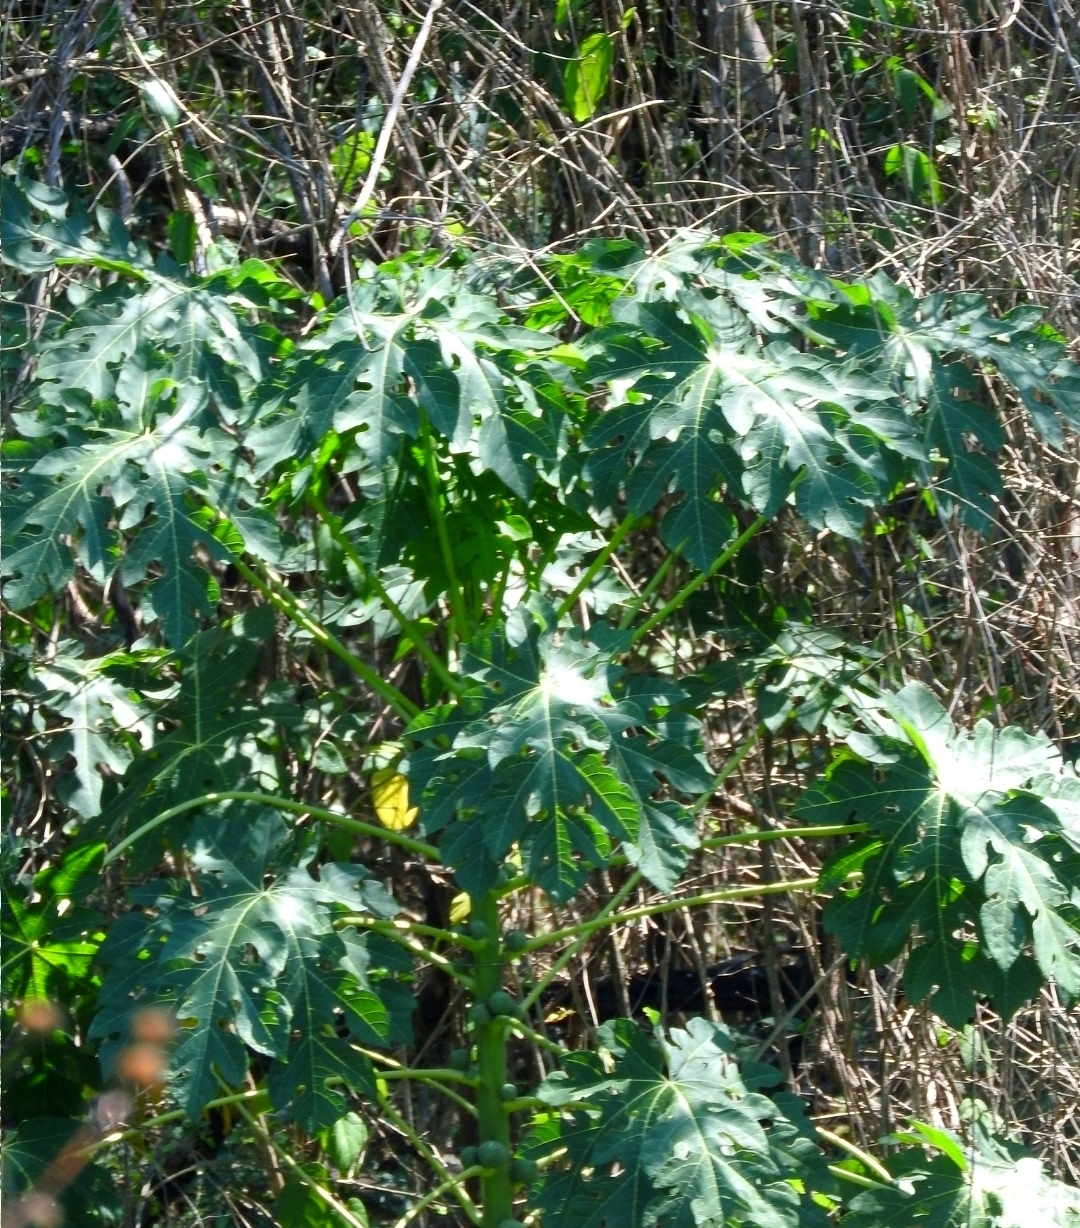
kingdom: Plantae
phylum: Tracheophyta
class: Magnoliopsida
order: Brassicales
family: Caricaceae
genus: Carica
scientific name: Carica papaya
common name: Papaya
